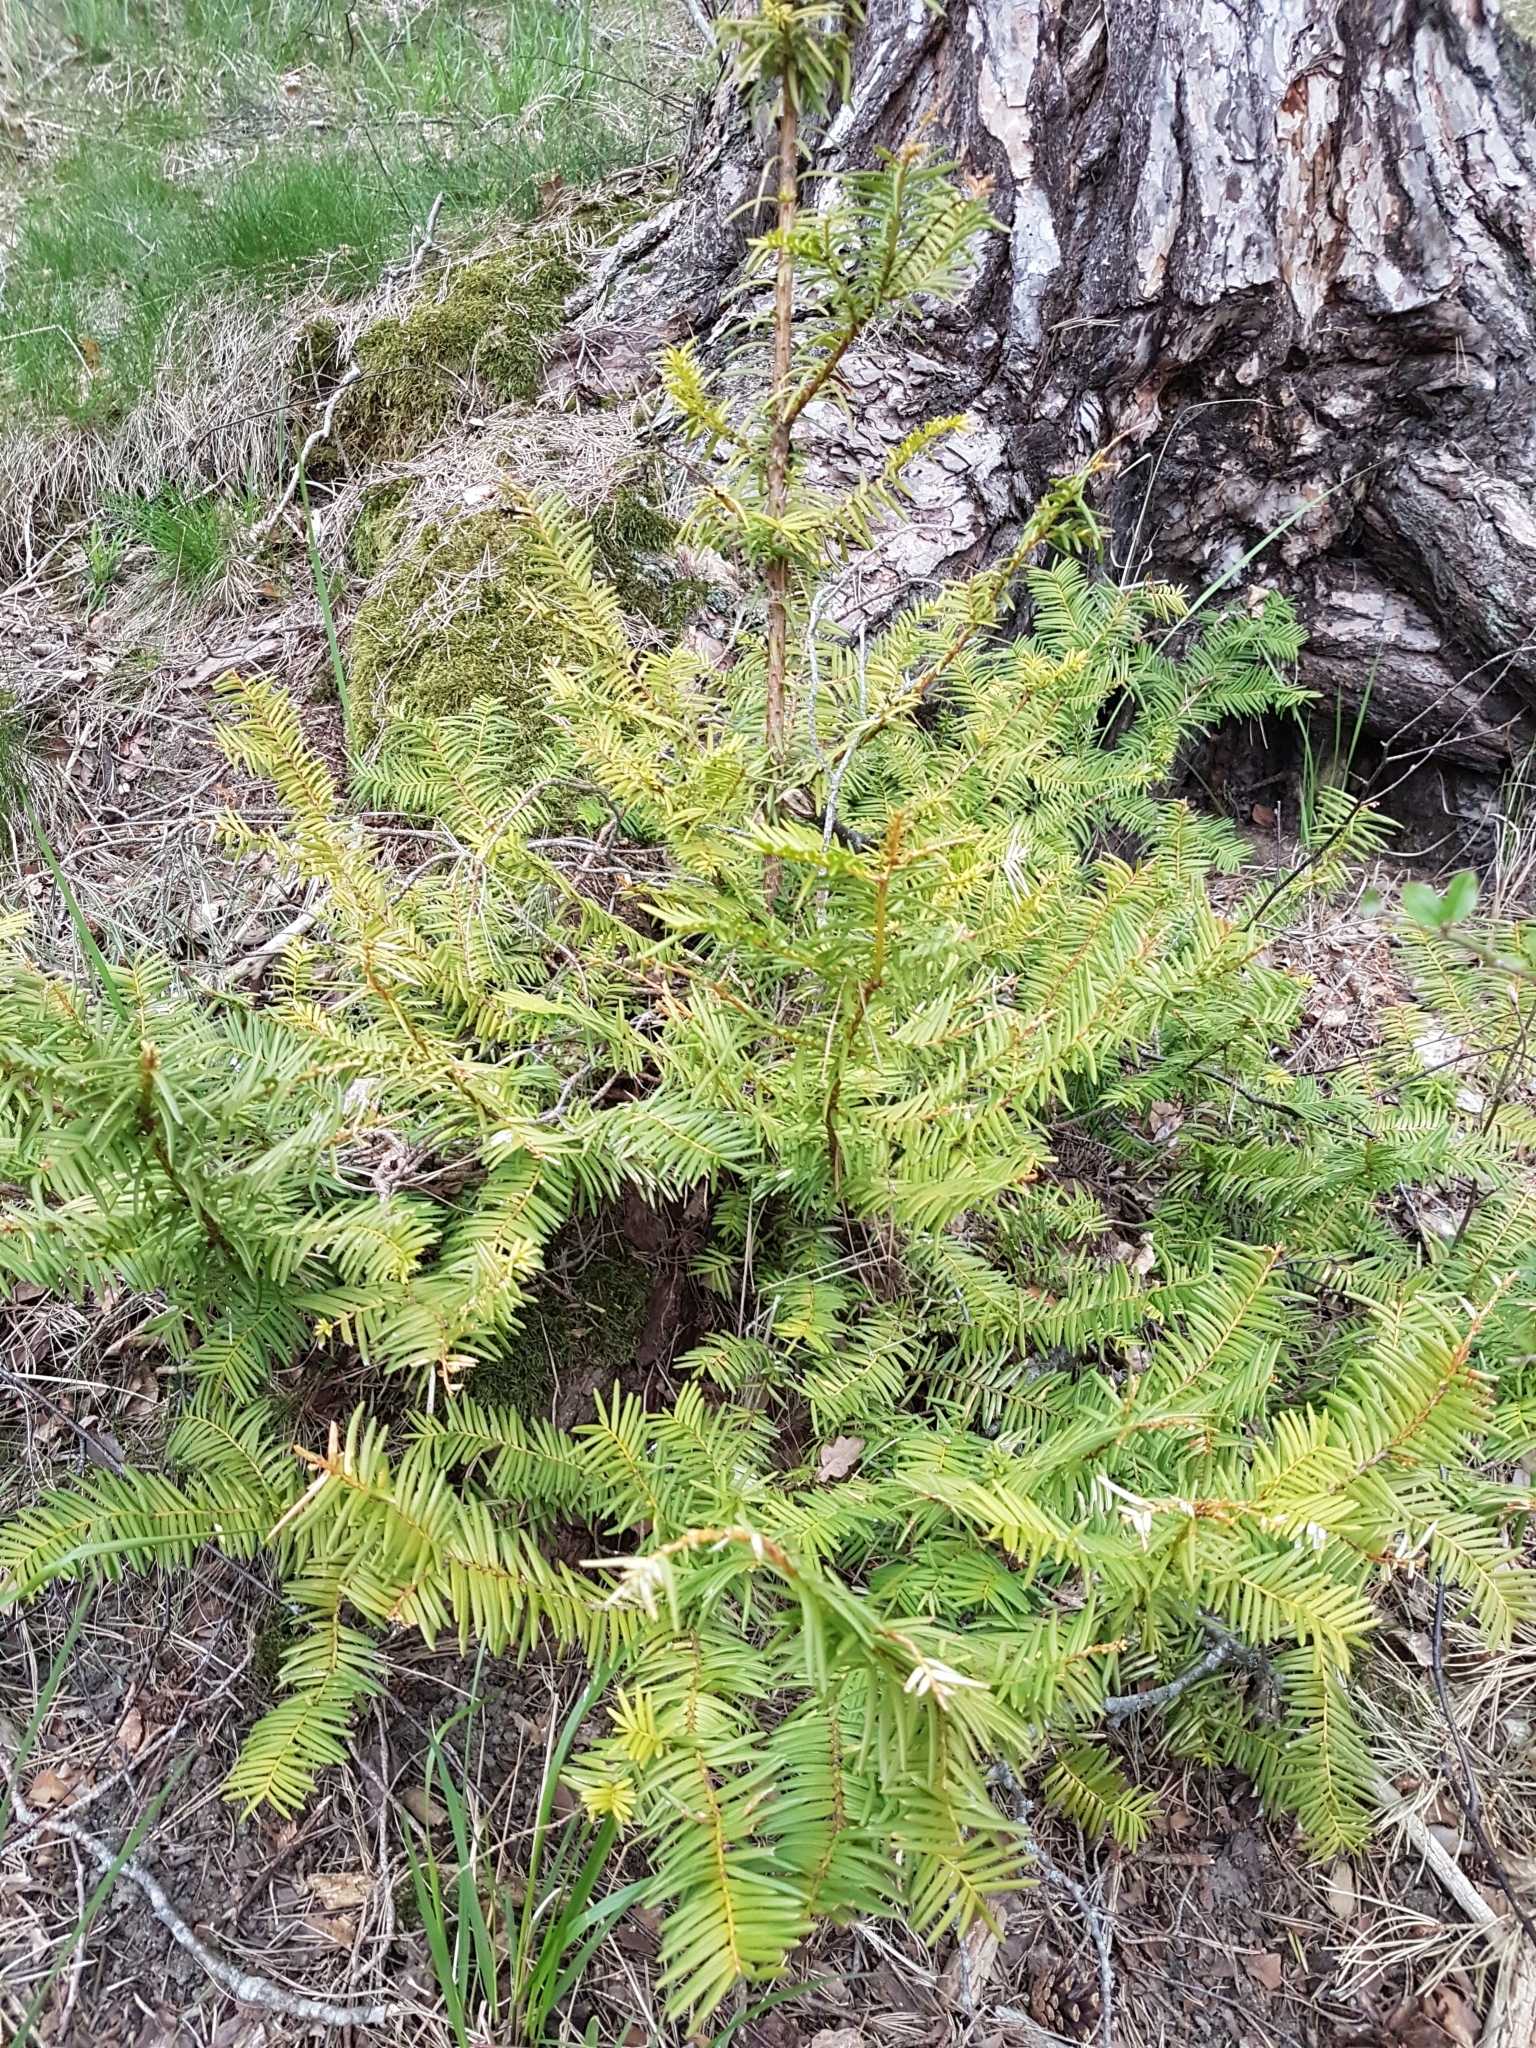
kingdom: Plantae
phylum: Tracheophyta
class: Pinopsida
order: Pinales
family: Taxaceae
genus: Taxus
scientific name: Taxus baccata
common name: Yew
